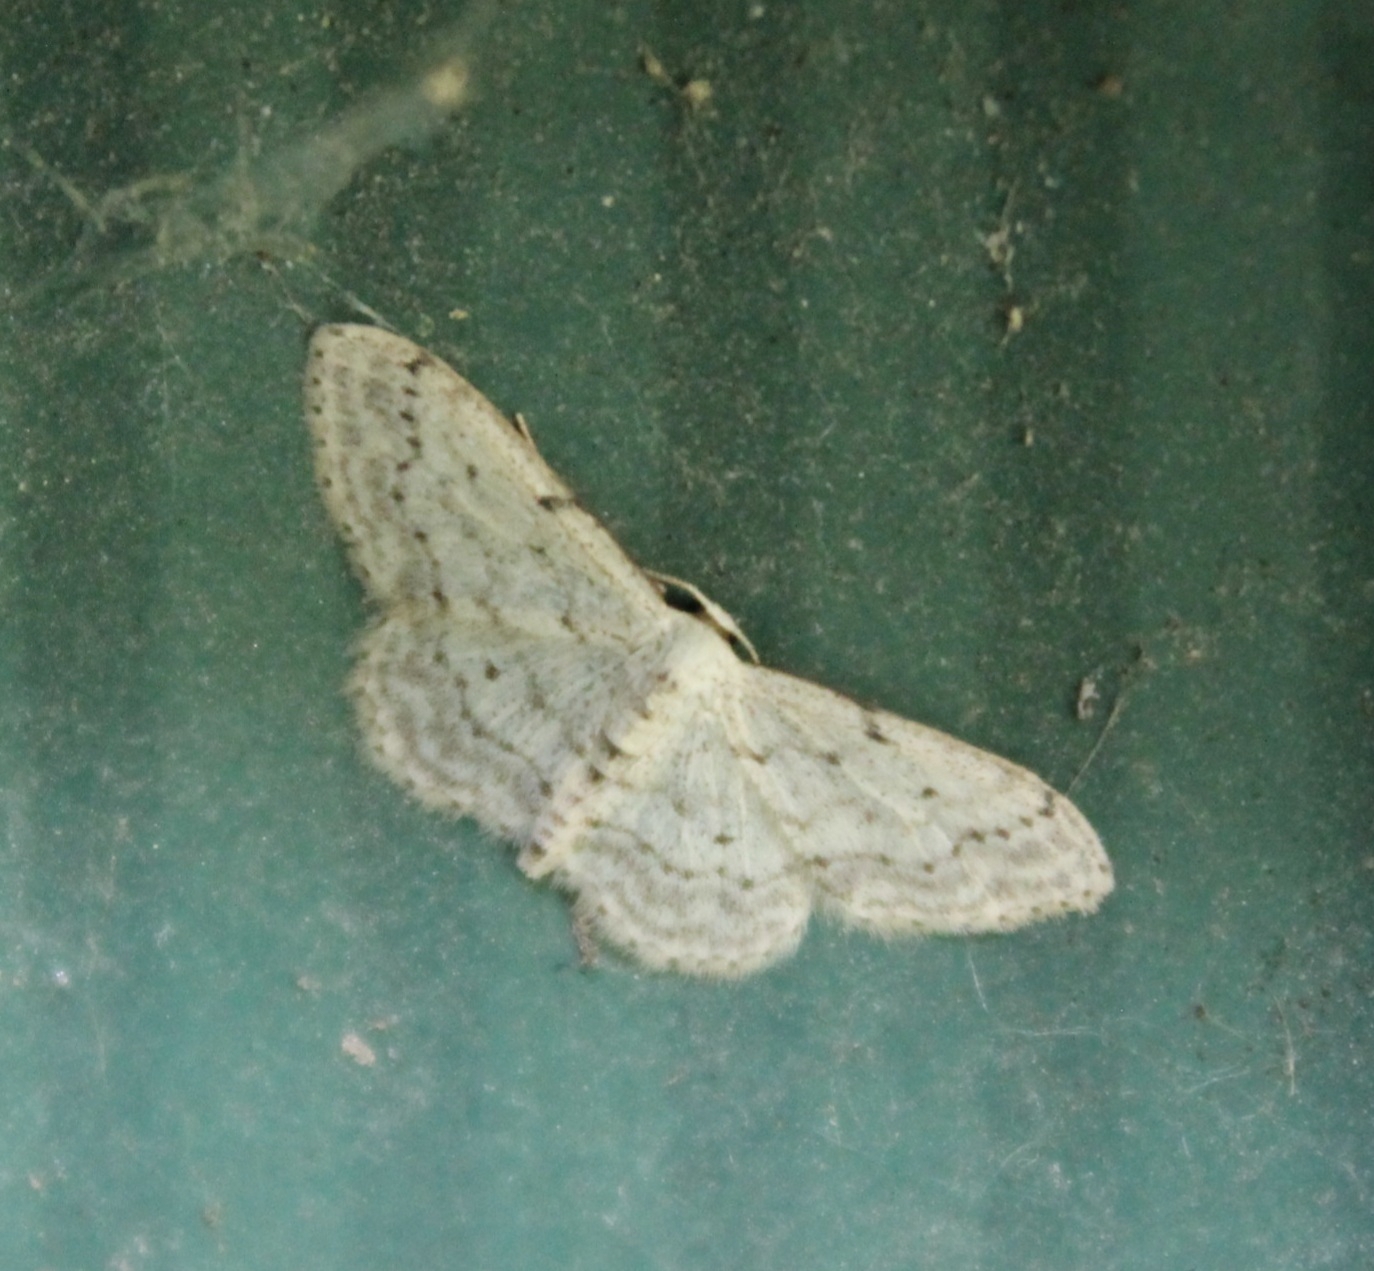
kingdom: Animalia
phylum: Arthropoda
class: Insecta
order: Lepidoptera
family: Geometridae
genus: Idaea
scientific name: Idaea seriata
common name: Small dusty wave
